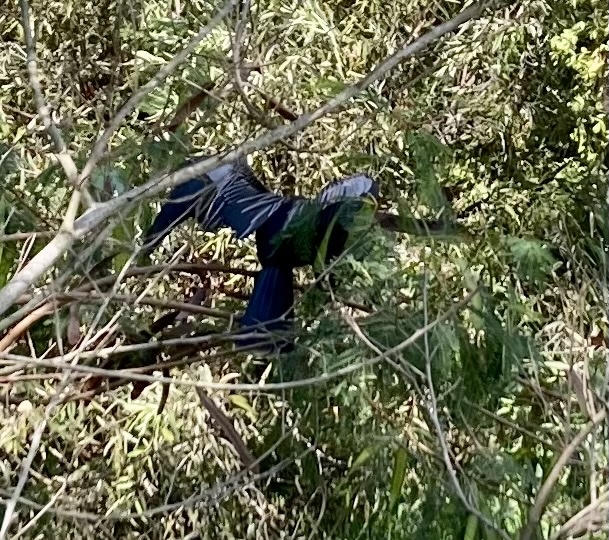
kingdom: Animalia
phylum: Chordata
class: Aves
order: Suliformes
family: Anhingidae
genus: Anhinga
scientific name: Anhinga anhinga
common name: Anhinga
